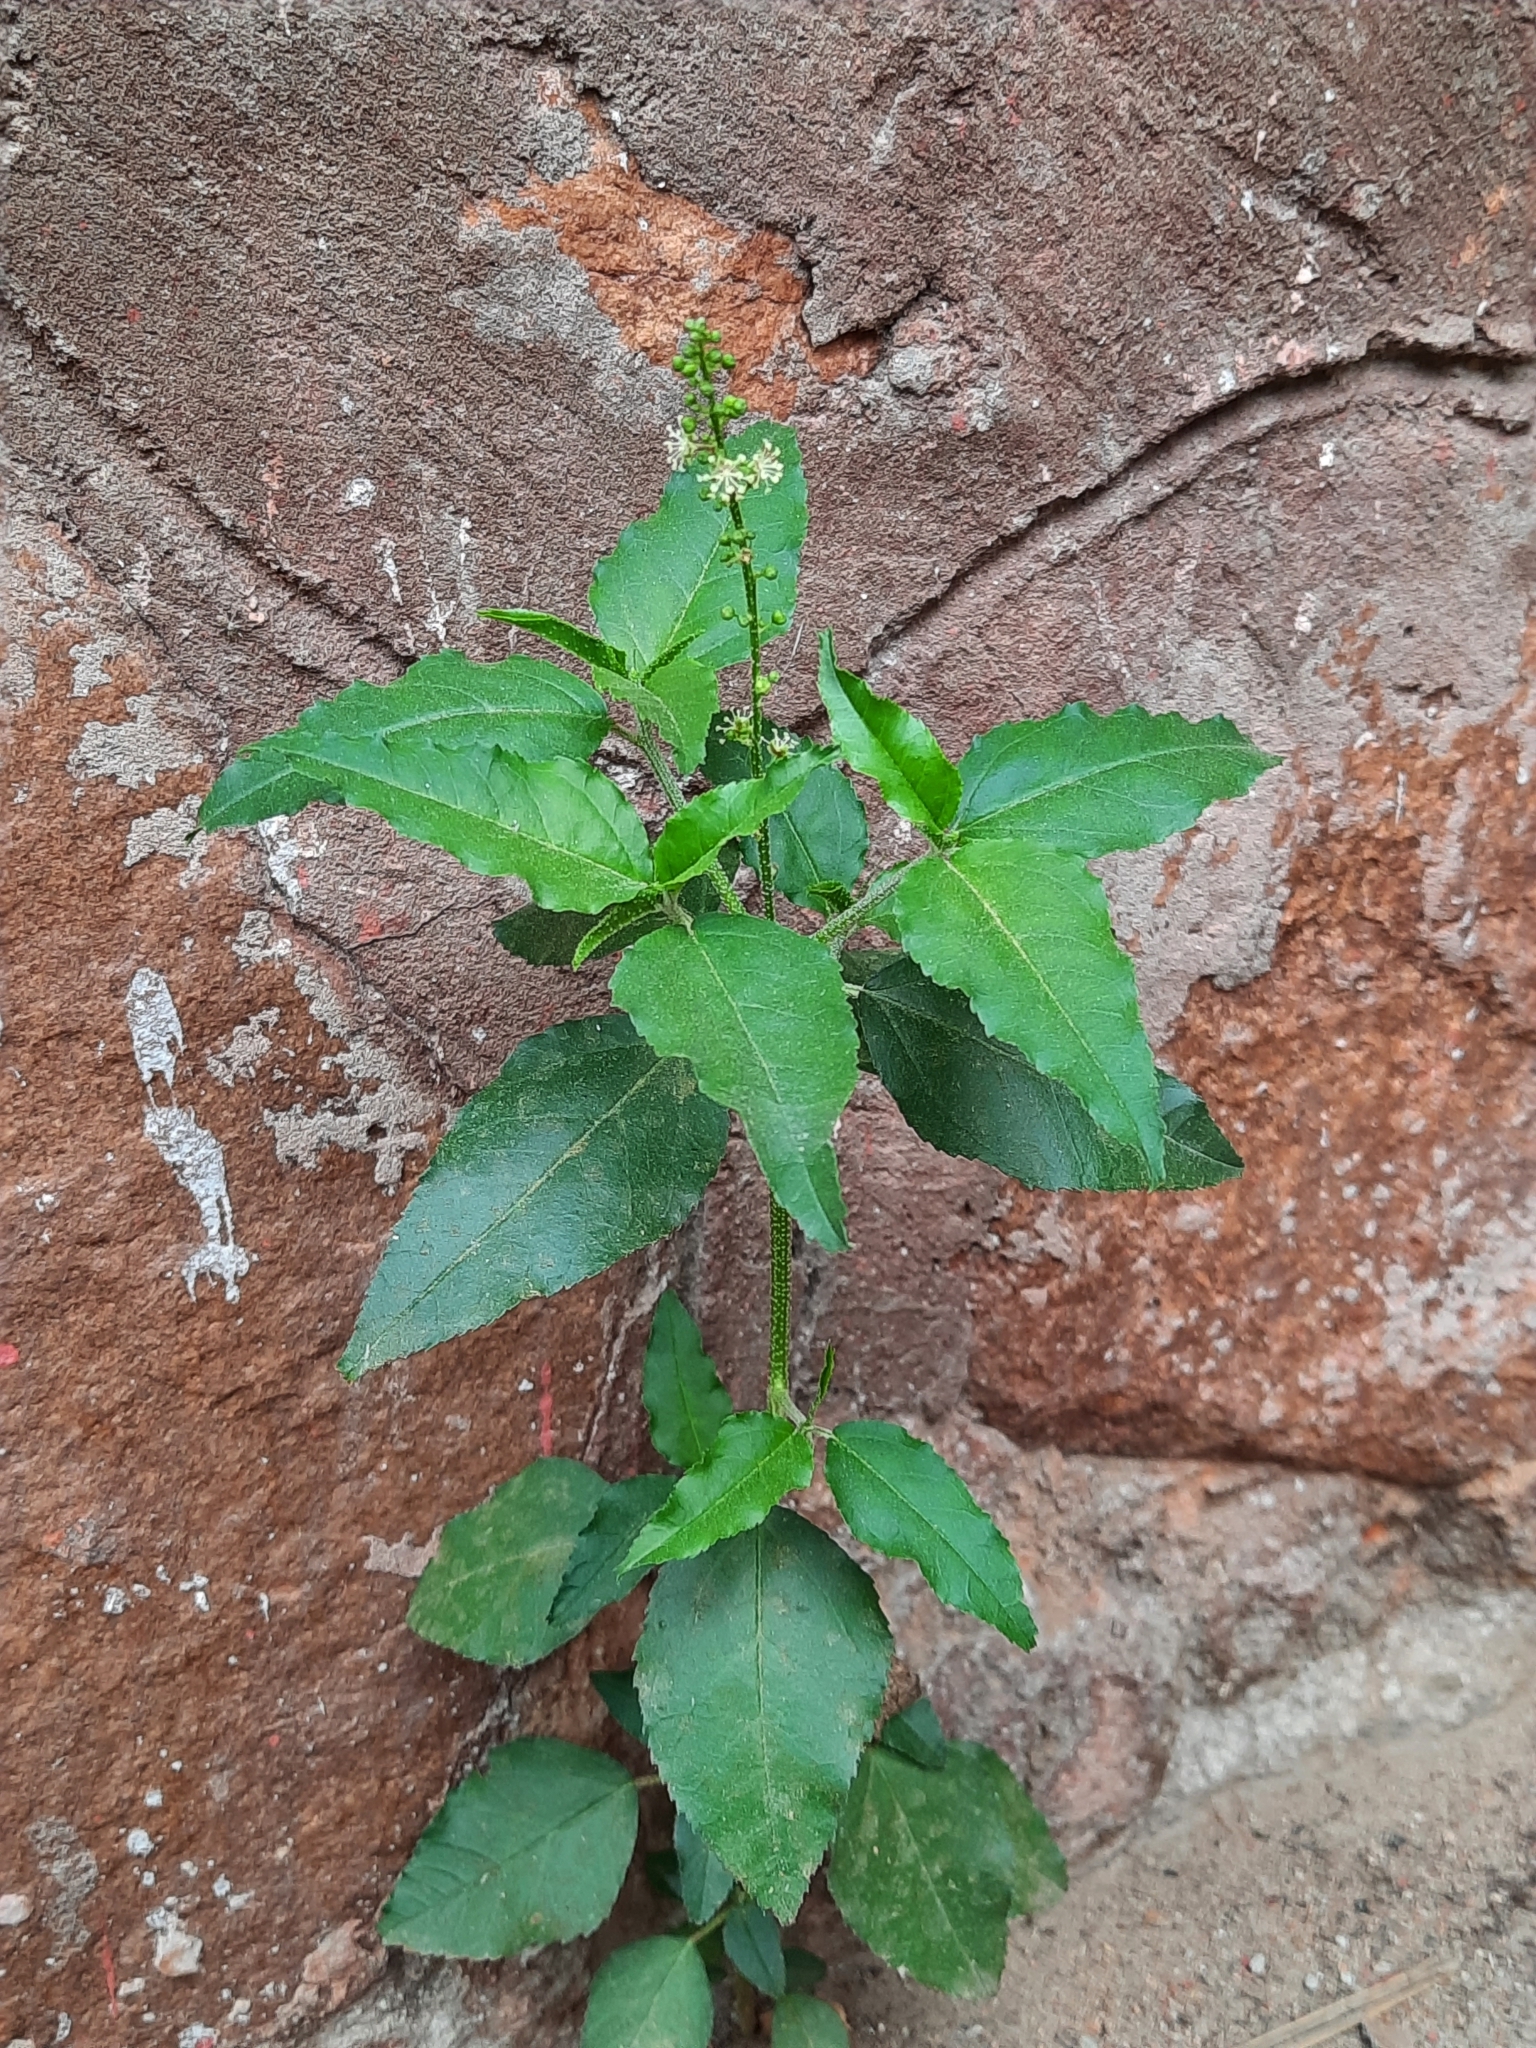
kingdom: Plantae
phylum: Tracheophyta
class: Magnoliopsida
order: Malpighiales
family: Euphorbiaceae
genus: Croton
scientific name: Croton bonplandianus
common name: Bonpland's croton
